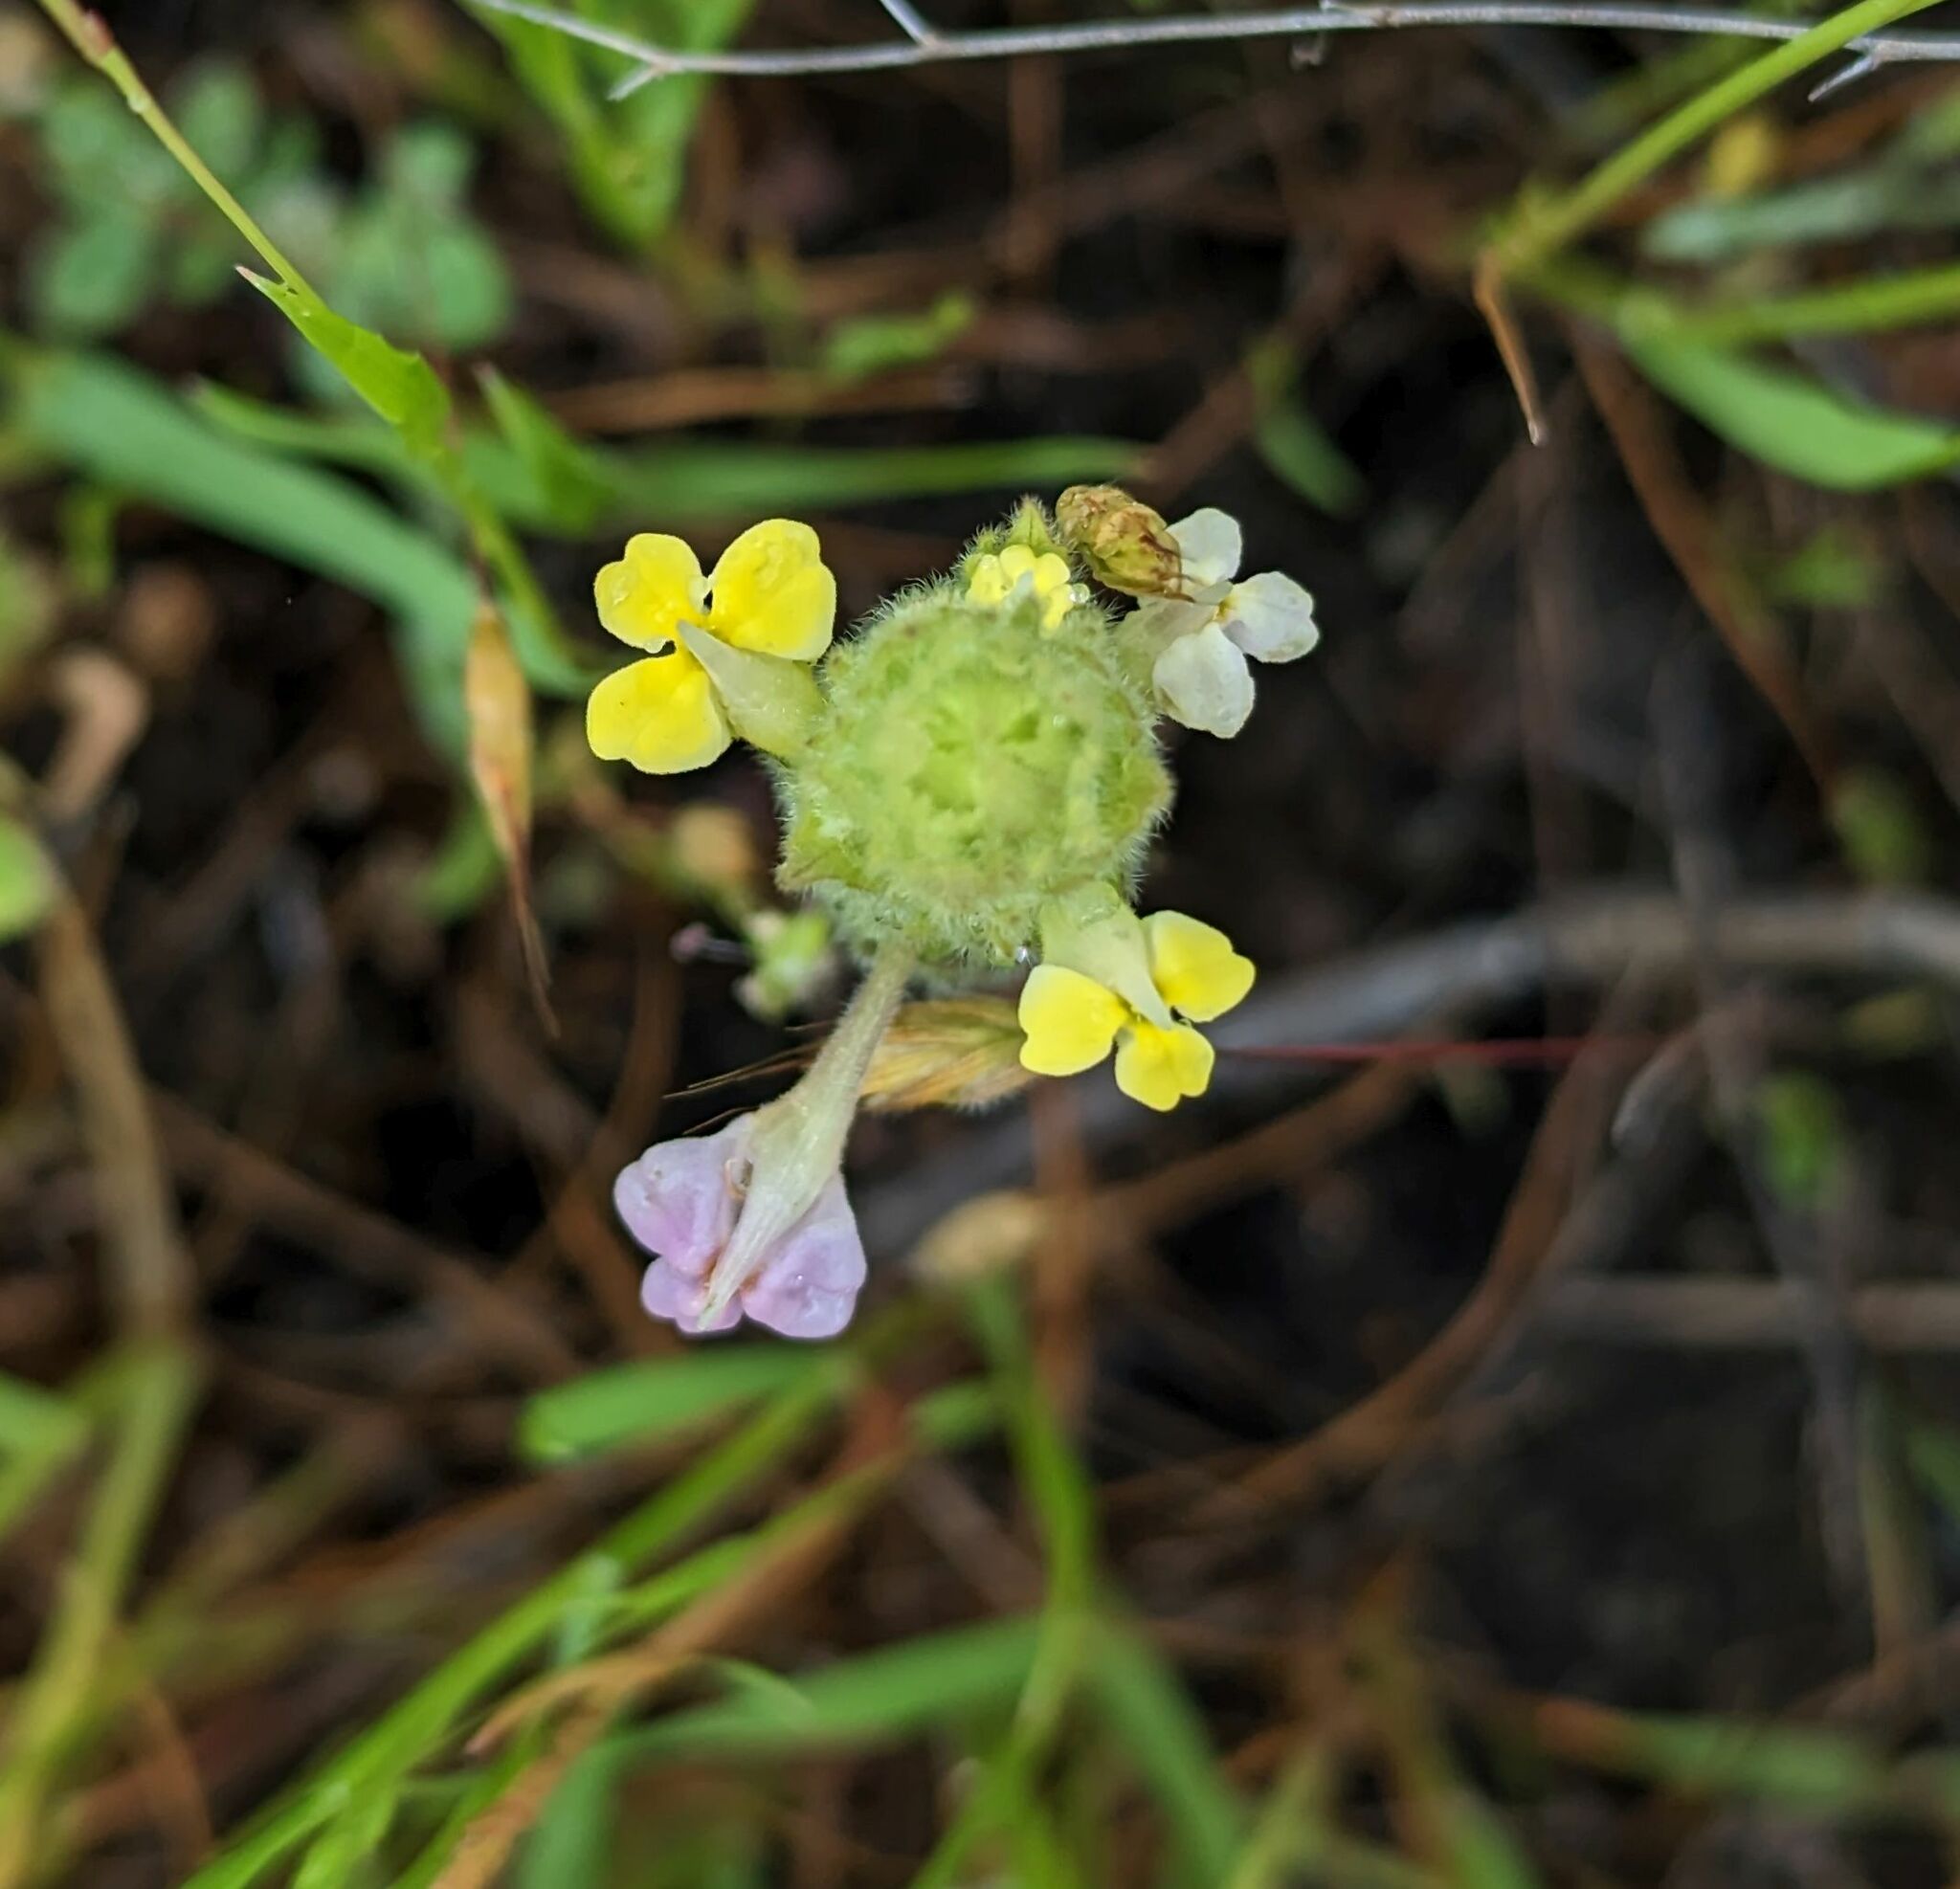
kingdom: Plantae
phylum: Tracheophyta
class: Magnoliopsida
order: Lamiales
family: Orobanchaceae
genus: Castilleja
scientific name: Castilleja rubicundula
